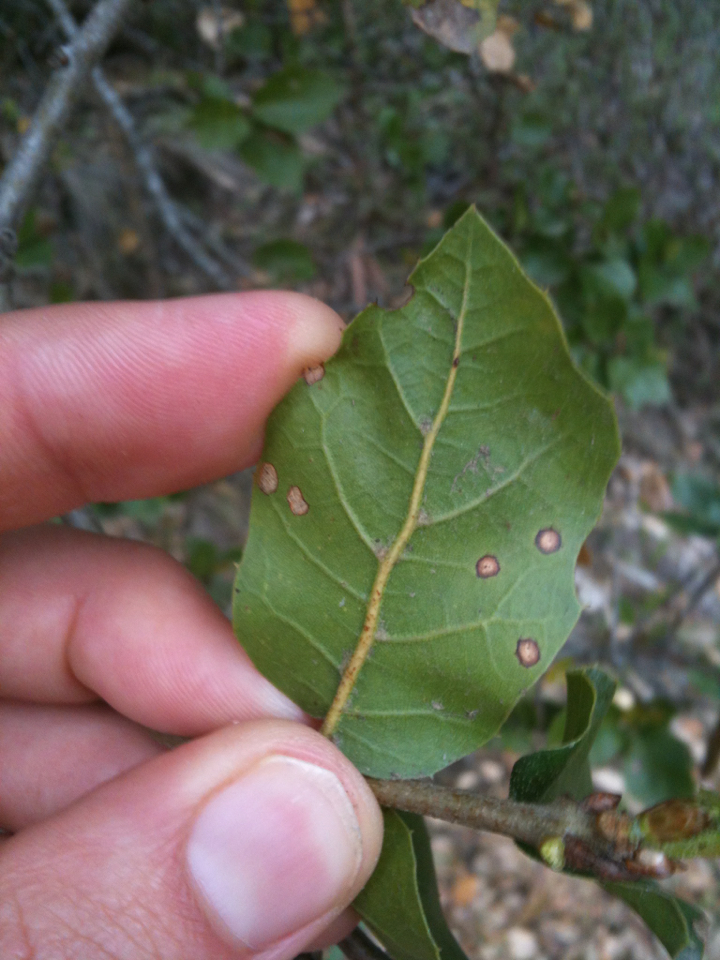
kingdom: Plantae
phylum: Tracheophyta
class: Magnoliopsida
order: Fagales
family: Fagaceae
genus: Quercus
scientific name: Quercus agrifolia
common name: California live oak
